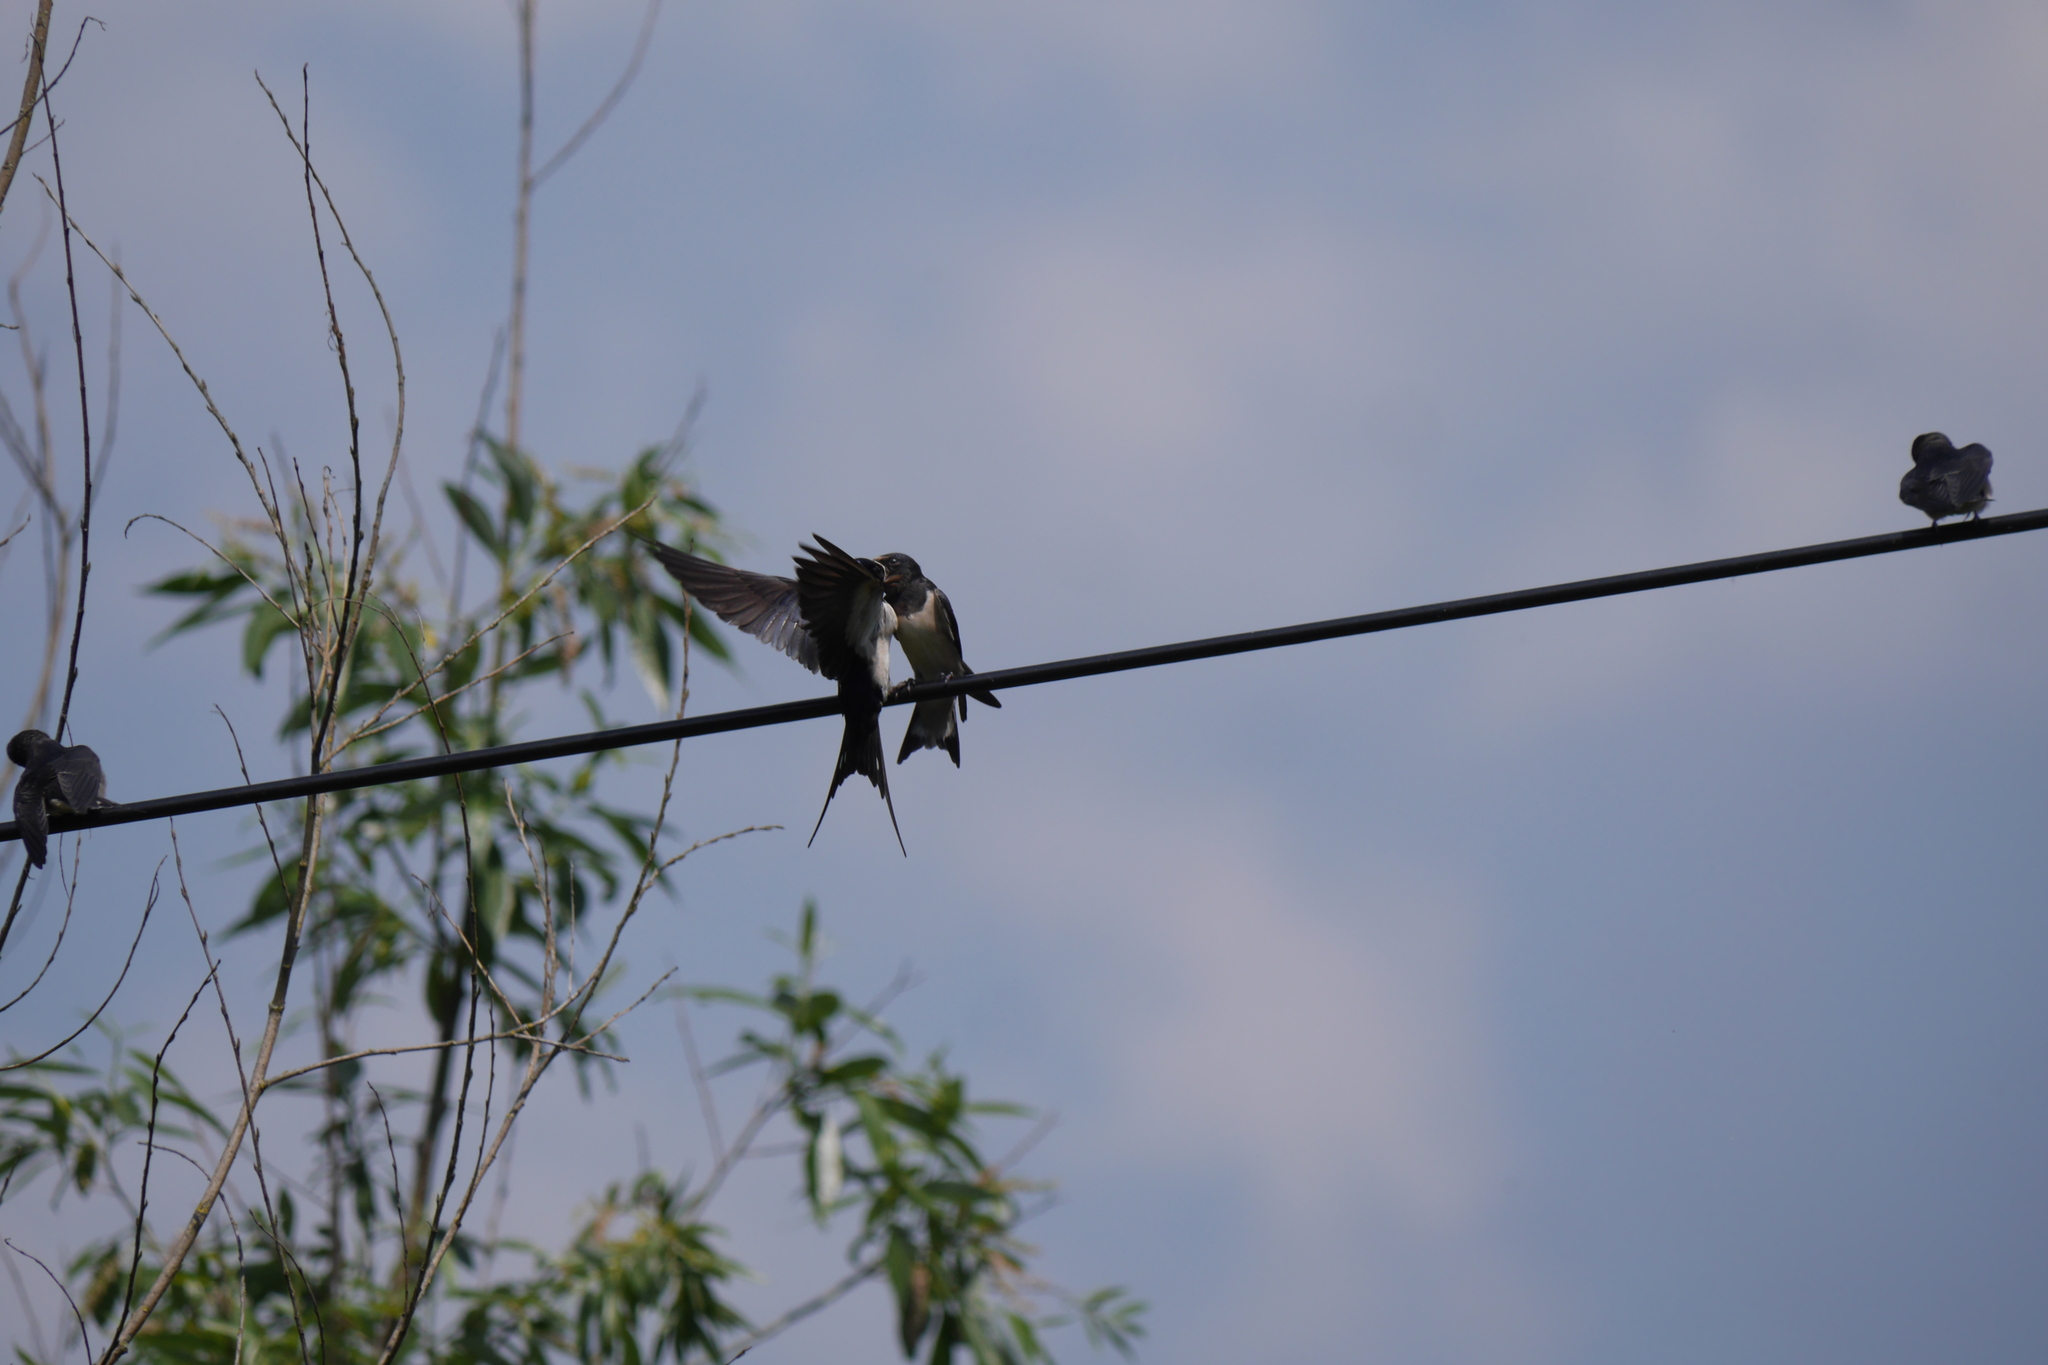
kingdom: Animalia
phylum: Chordata
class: Aves
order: Passeriformes
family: Hirundinidae
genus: Hirundo
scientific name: Hirundo rustica
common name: Barn swallow
